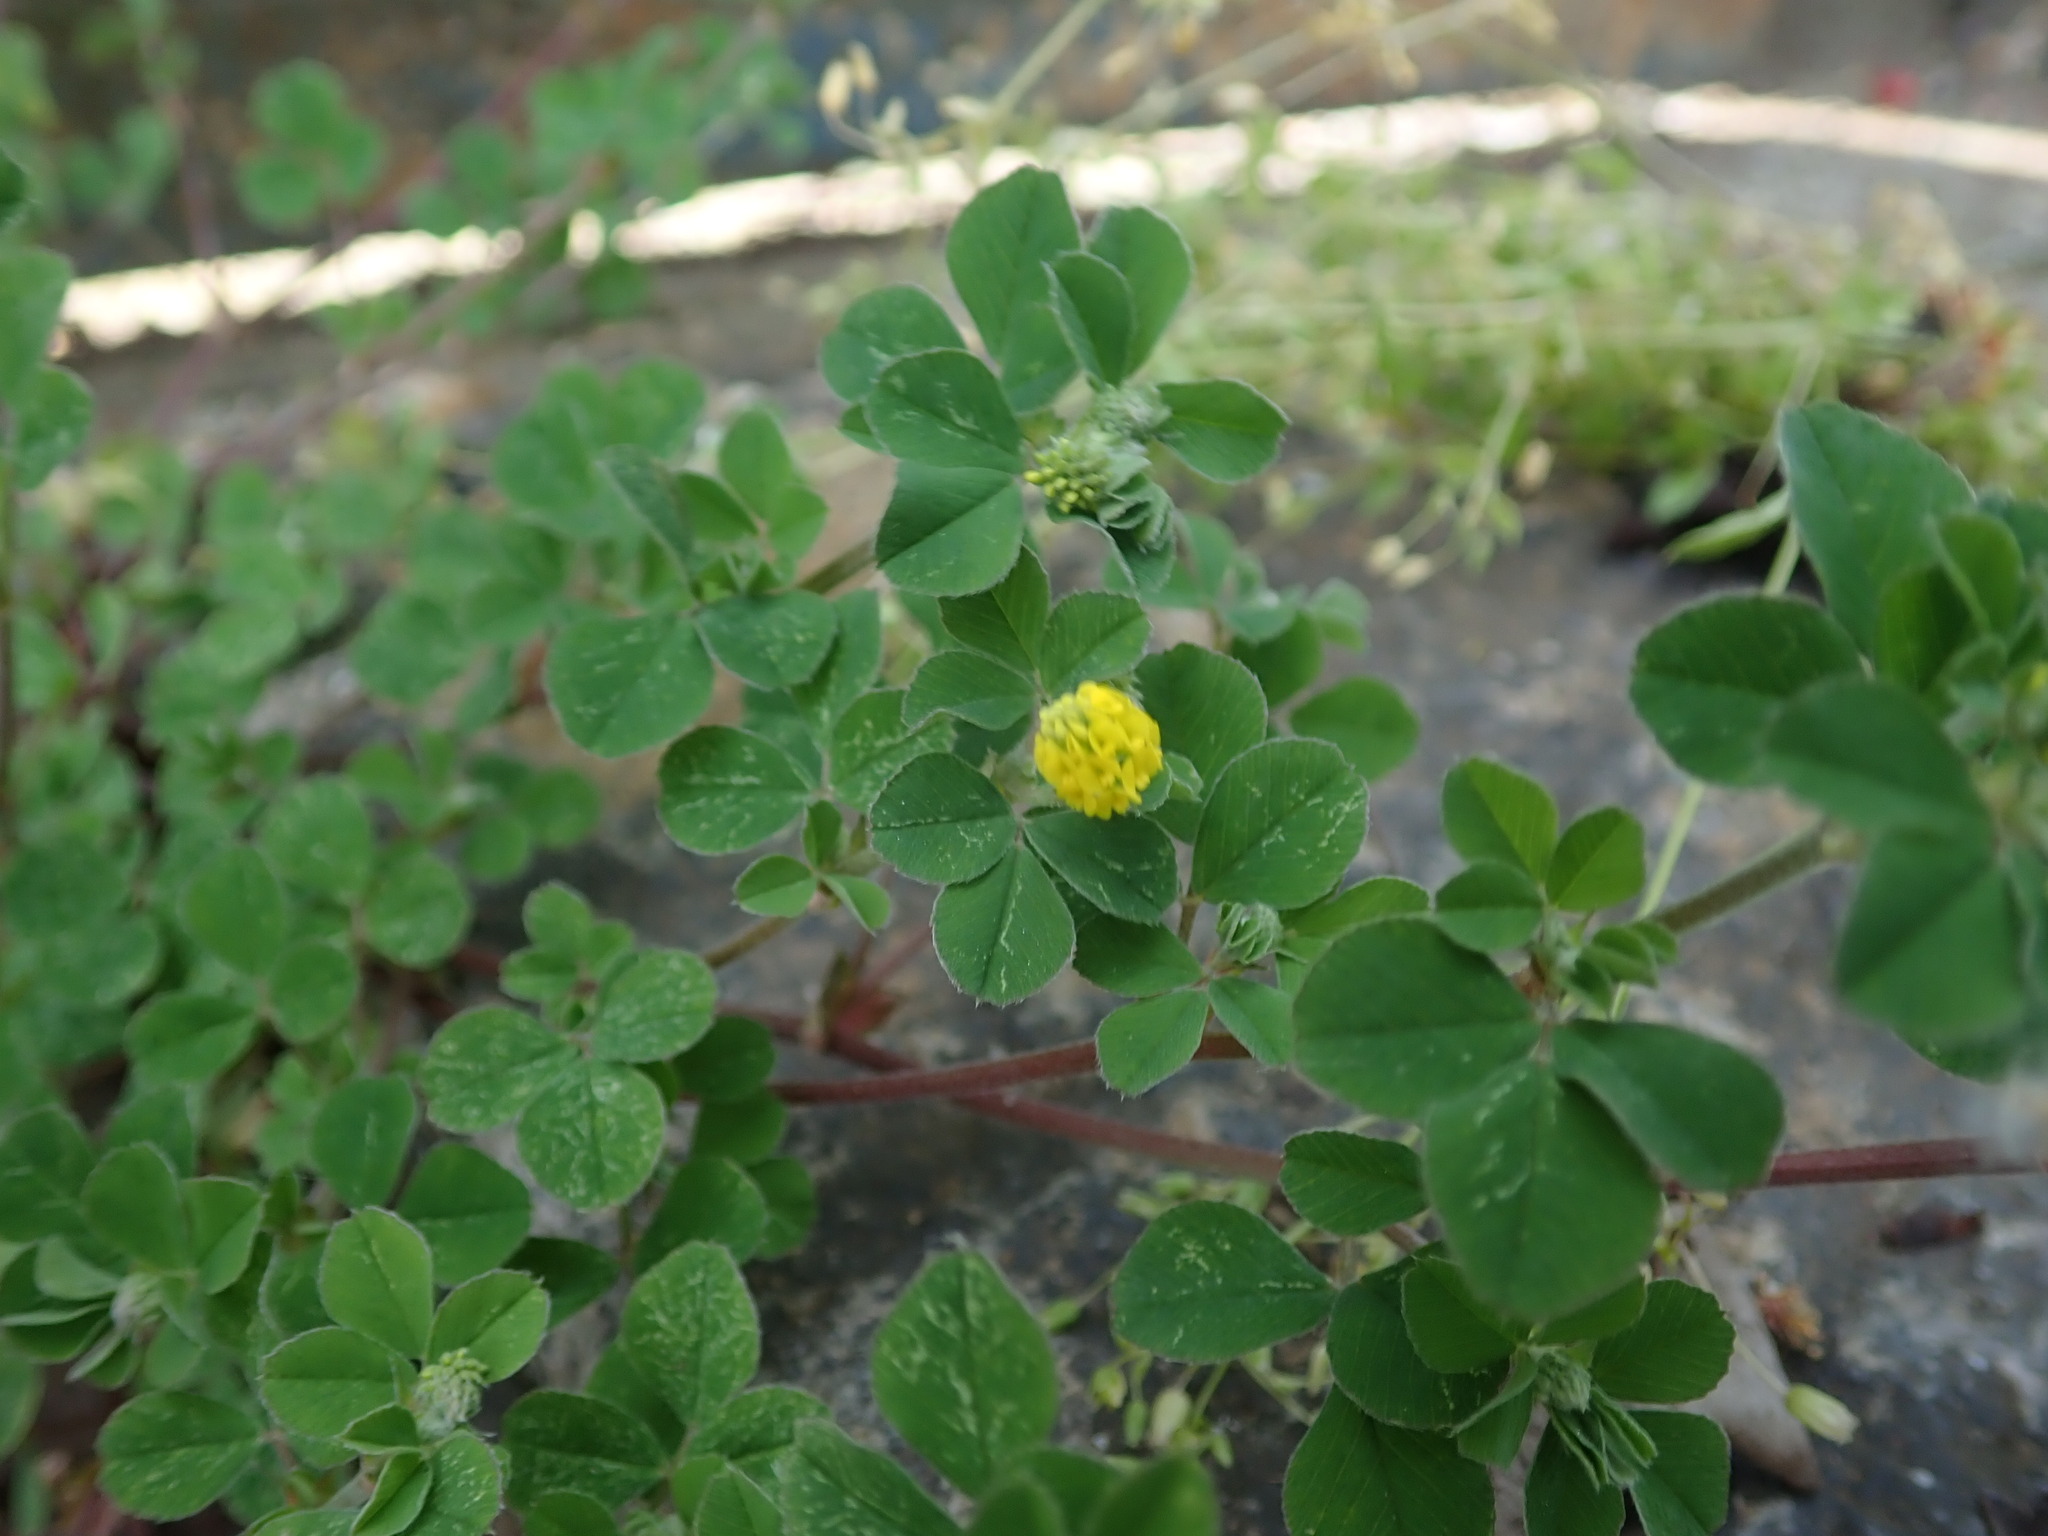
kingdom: Plantae
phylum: Tracheophyta
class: Magnoliopsida
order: Fabales
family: Fabaceae
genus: Medicago
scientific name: Medicago lupulina
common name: Black medick
